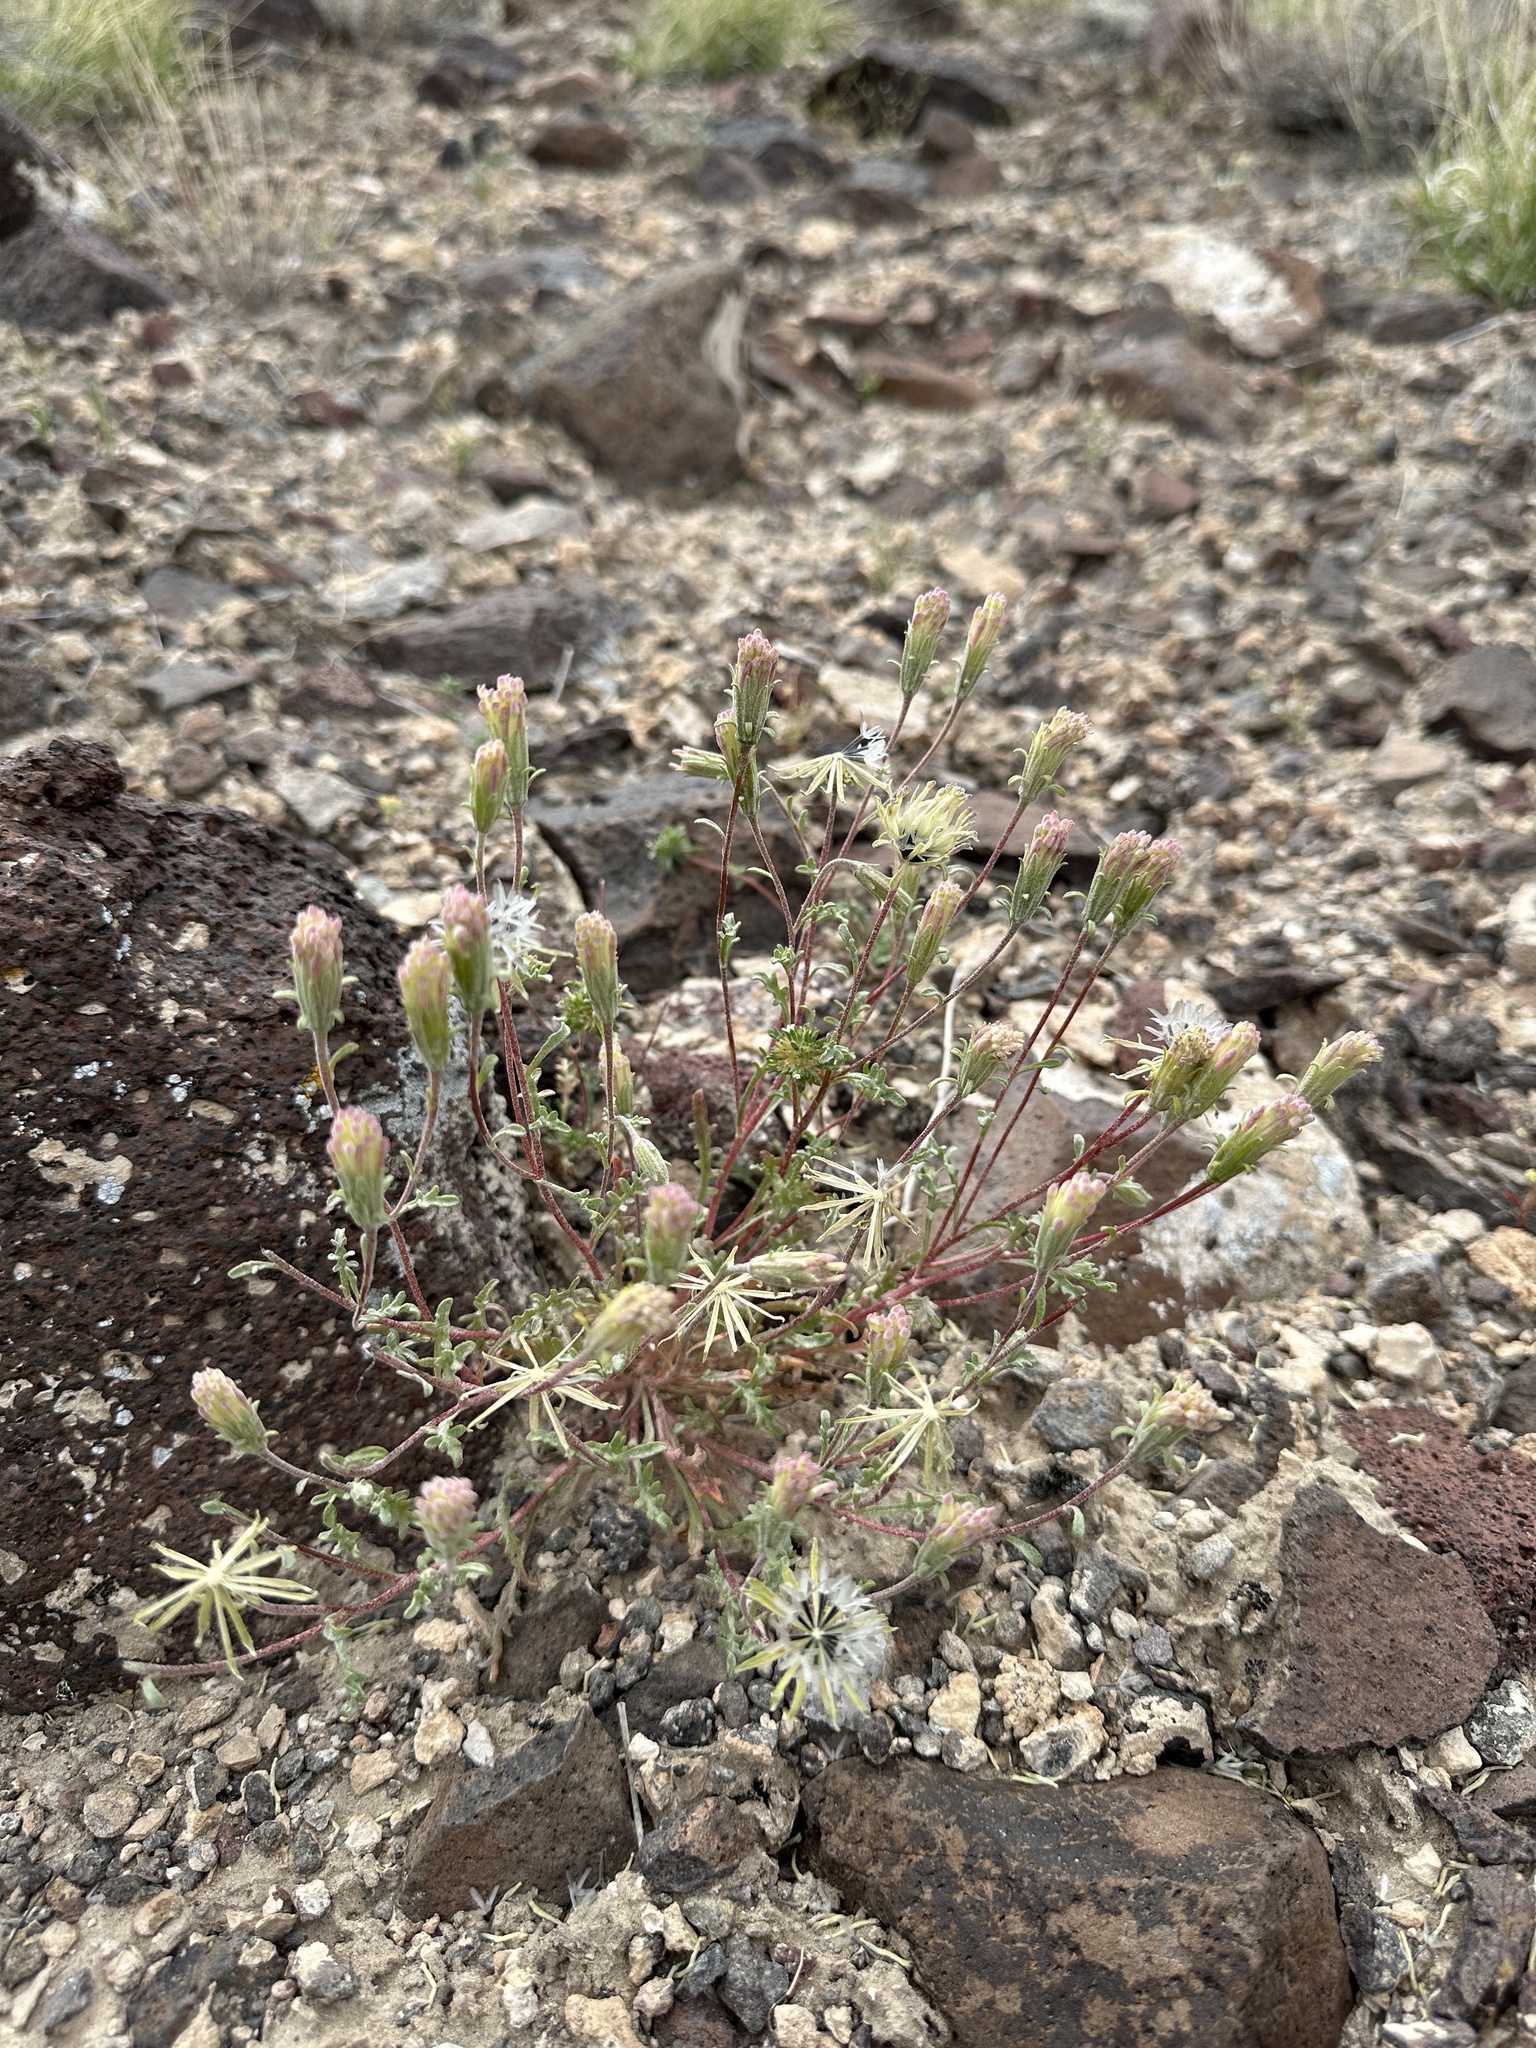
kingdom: Plantae
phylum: Tracheophyta
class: Magnoliopsida
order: Asterales
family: Asteraceae
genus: Chaenactis
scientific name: Chaenactis macrantha
